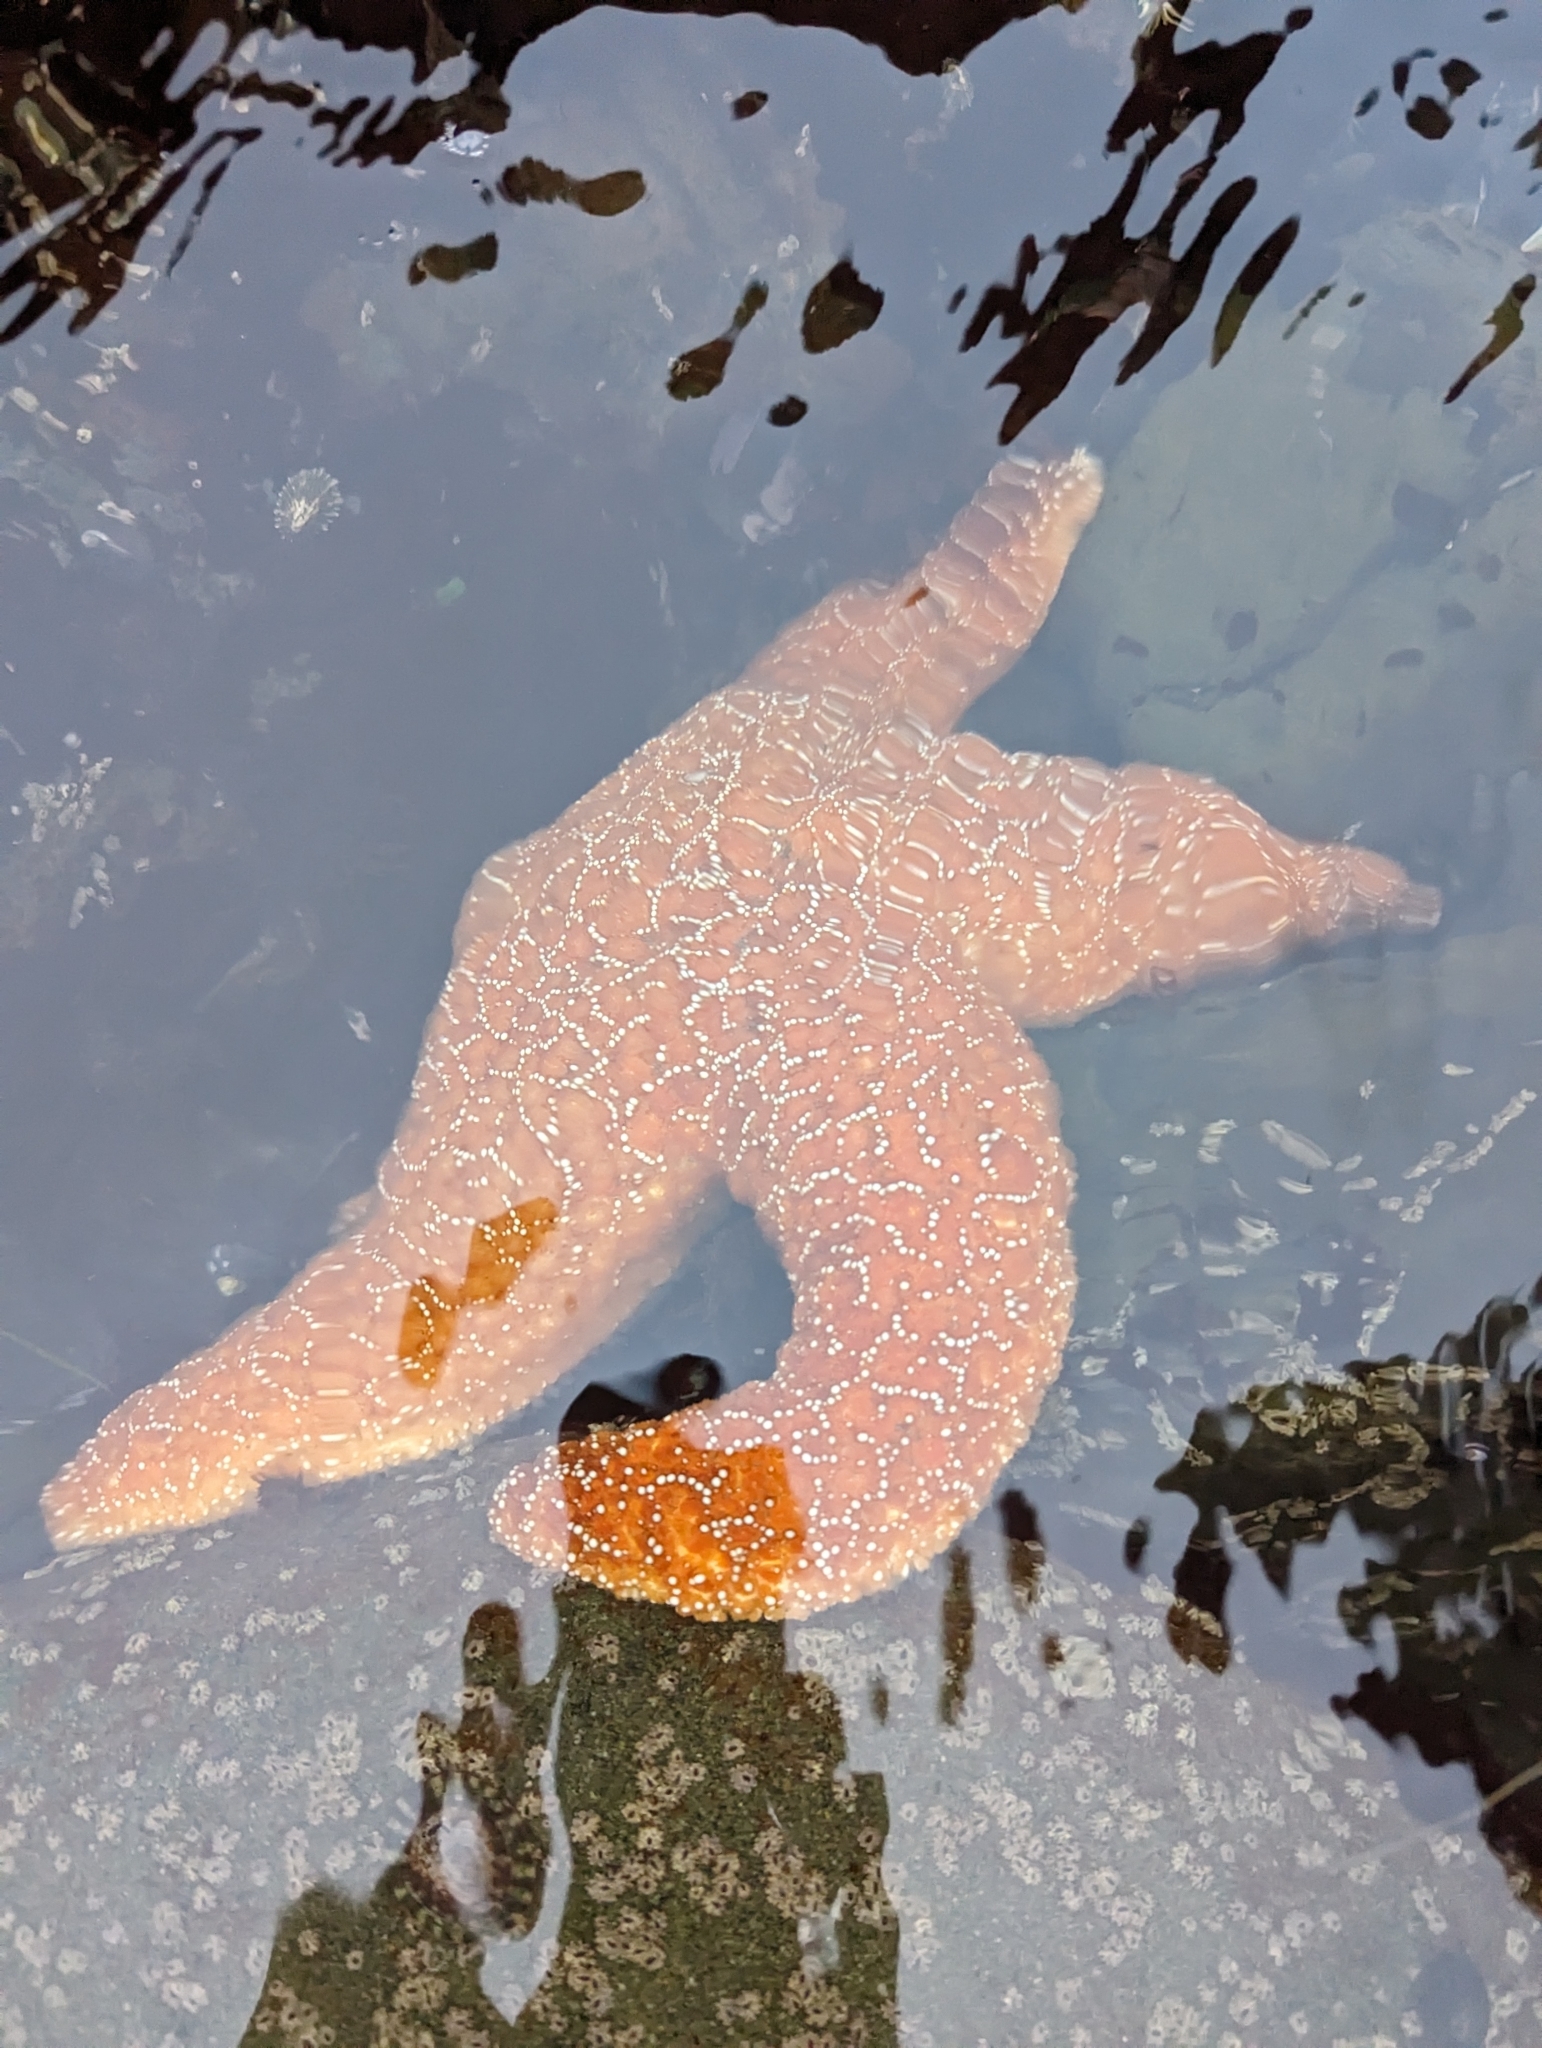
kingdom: Animalia
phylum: Echinodermata
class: Asteroidea
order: Forcipulatida
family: Asteriidae
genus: Pisaster
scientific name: Pisaster ochraceus
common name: Ochre stars
